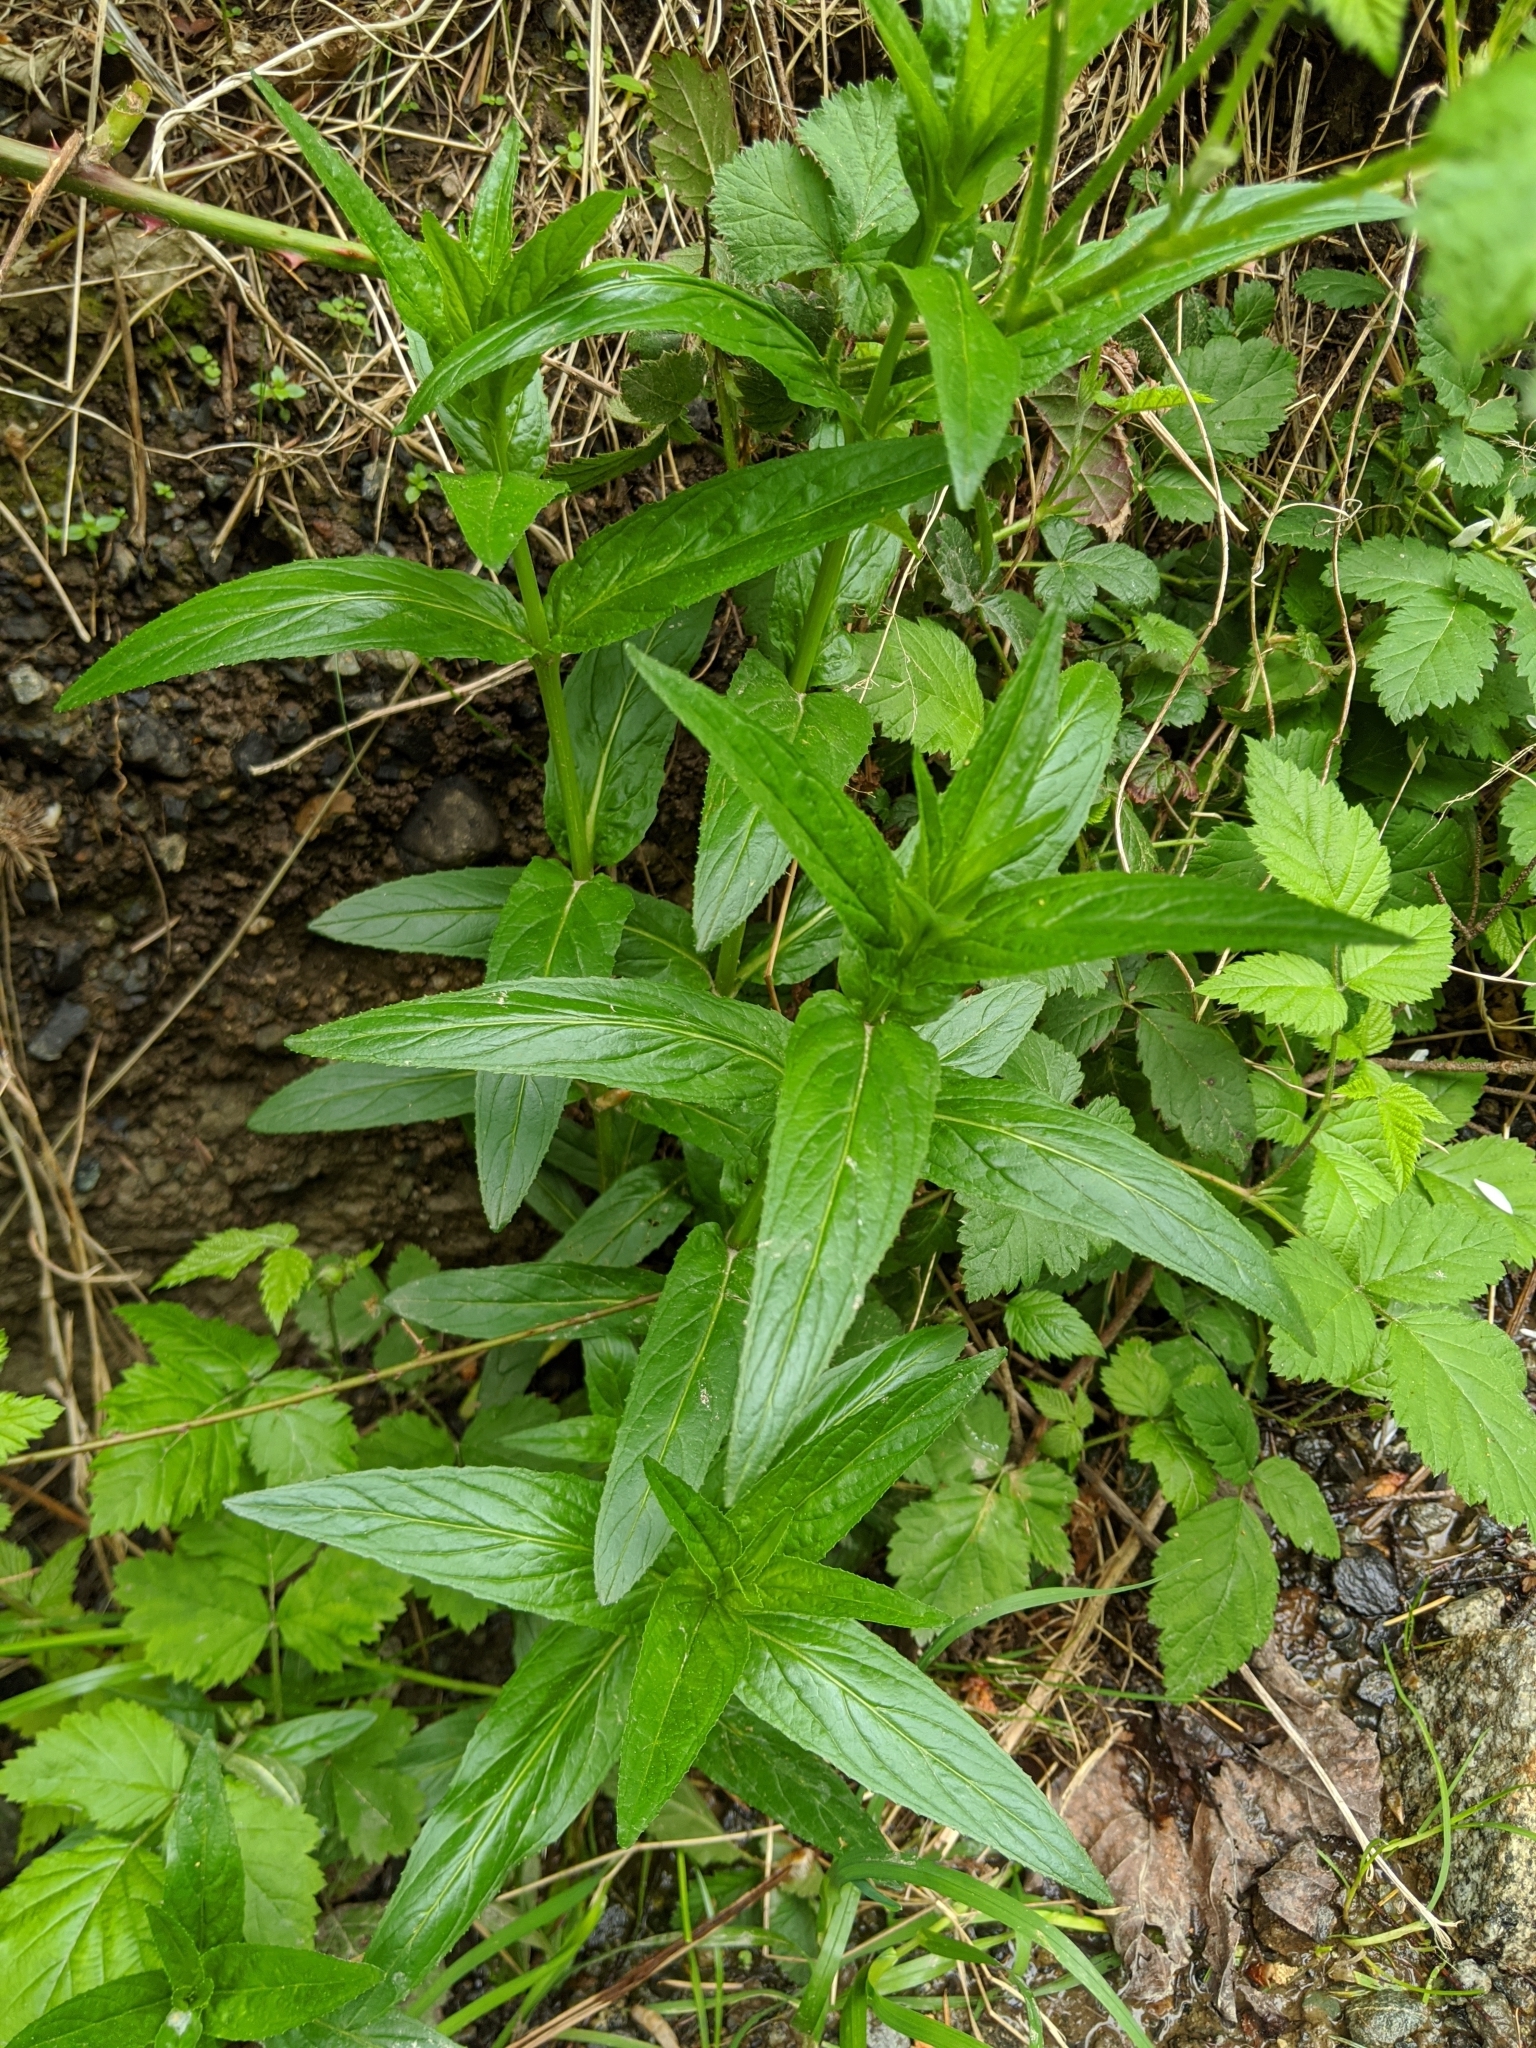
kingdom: Plantae
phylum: Tracheophyta
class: Magnoliopsida
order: Myrtales
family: Onagraceae
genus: Epilobium
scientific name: Epilobium ciliatum
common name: American willowherb
